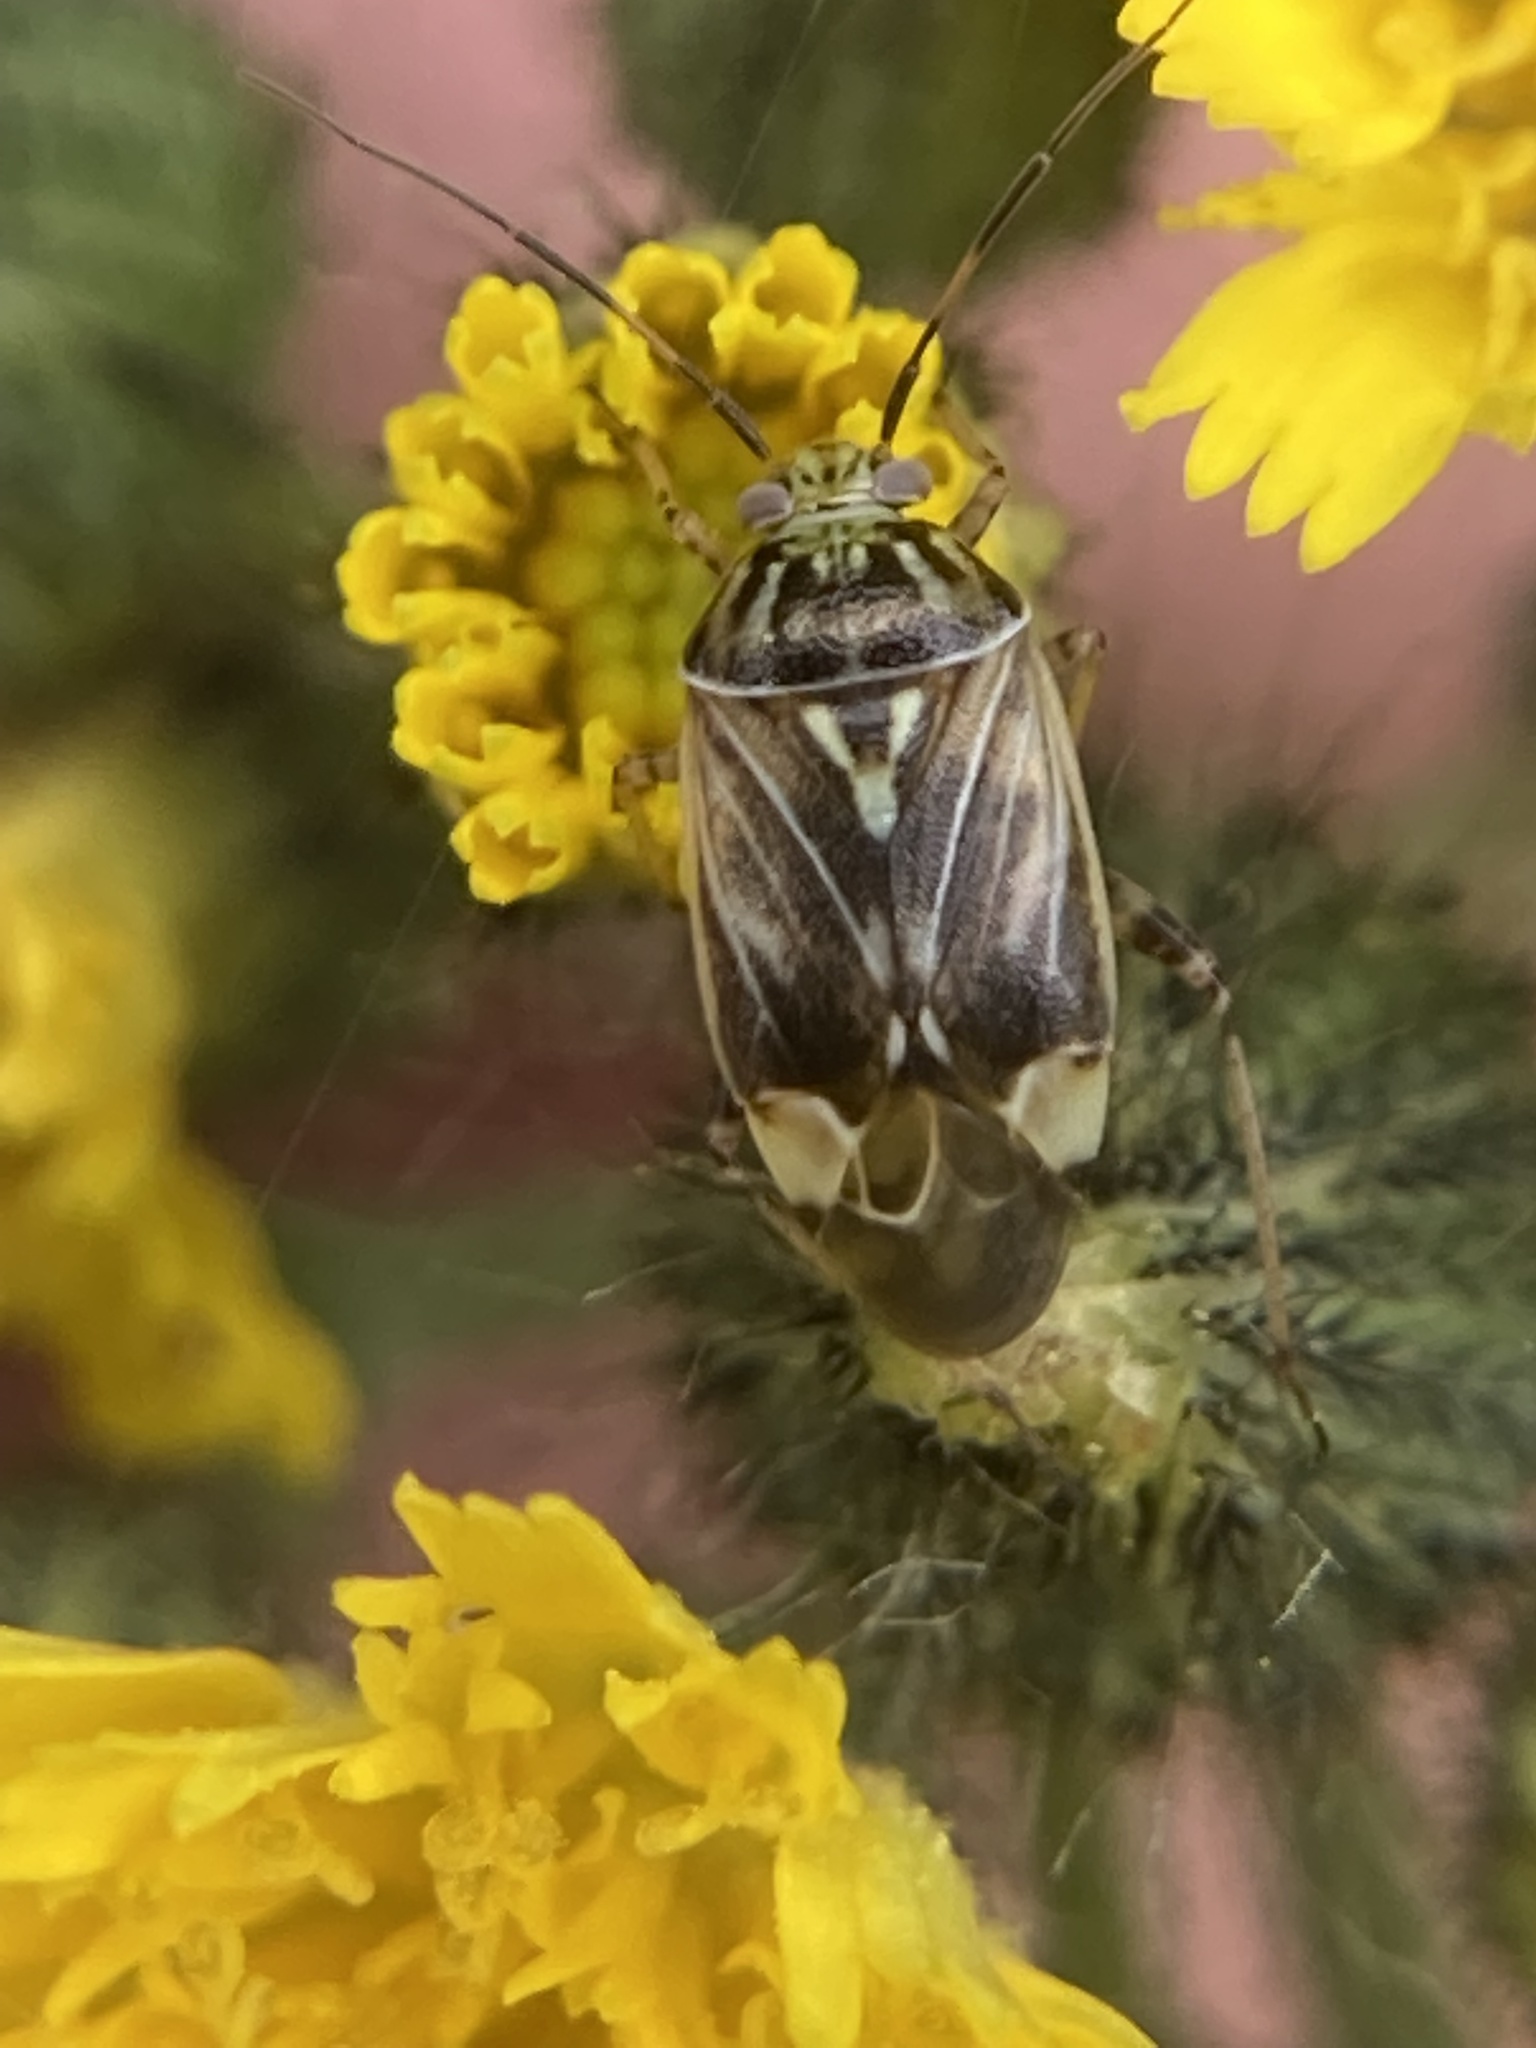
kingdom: Animalia
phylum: Arthropoda
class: Insecta
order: Hemiptera
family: Miridae
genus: Lygus
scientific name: Lygus lineolaris
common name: North american tarnished plant bug
